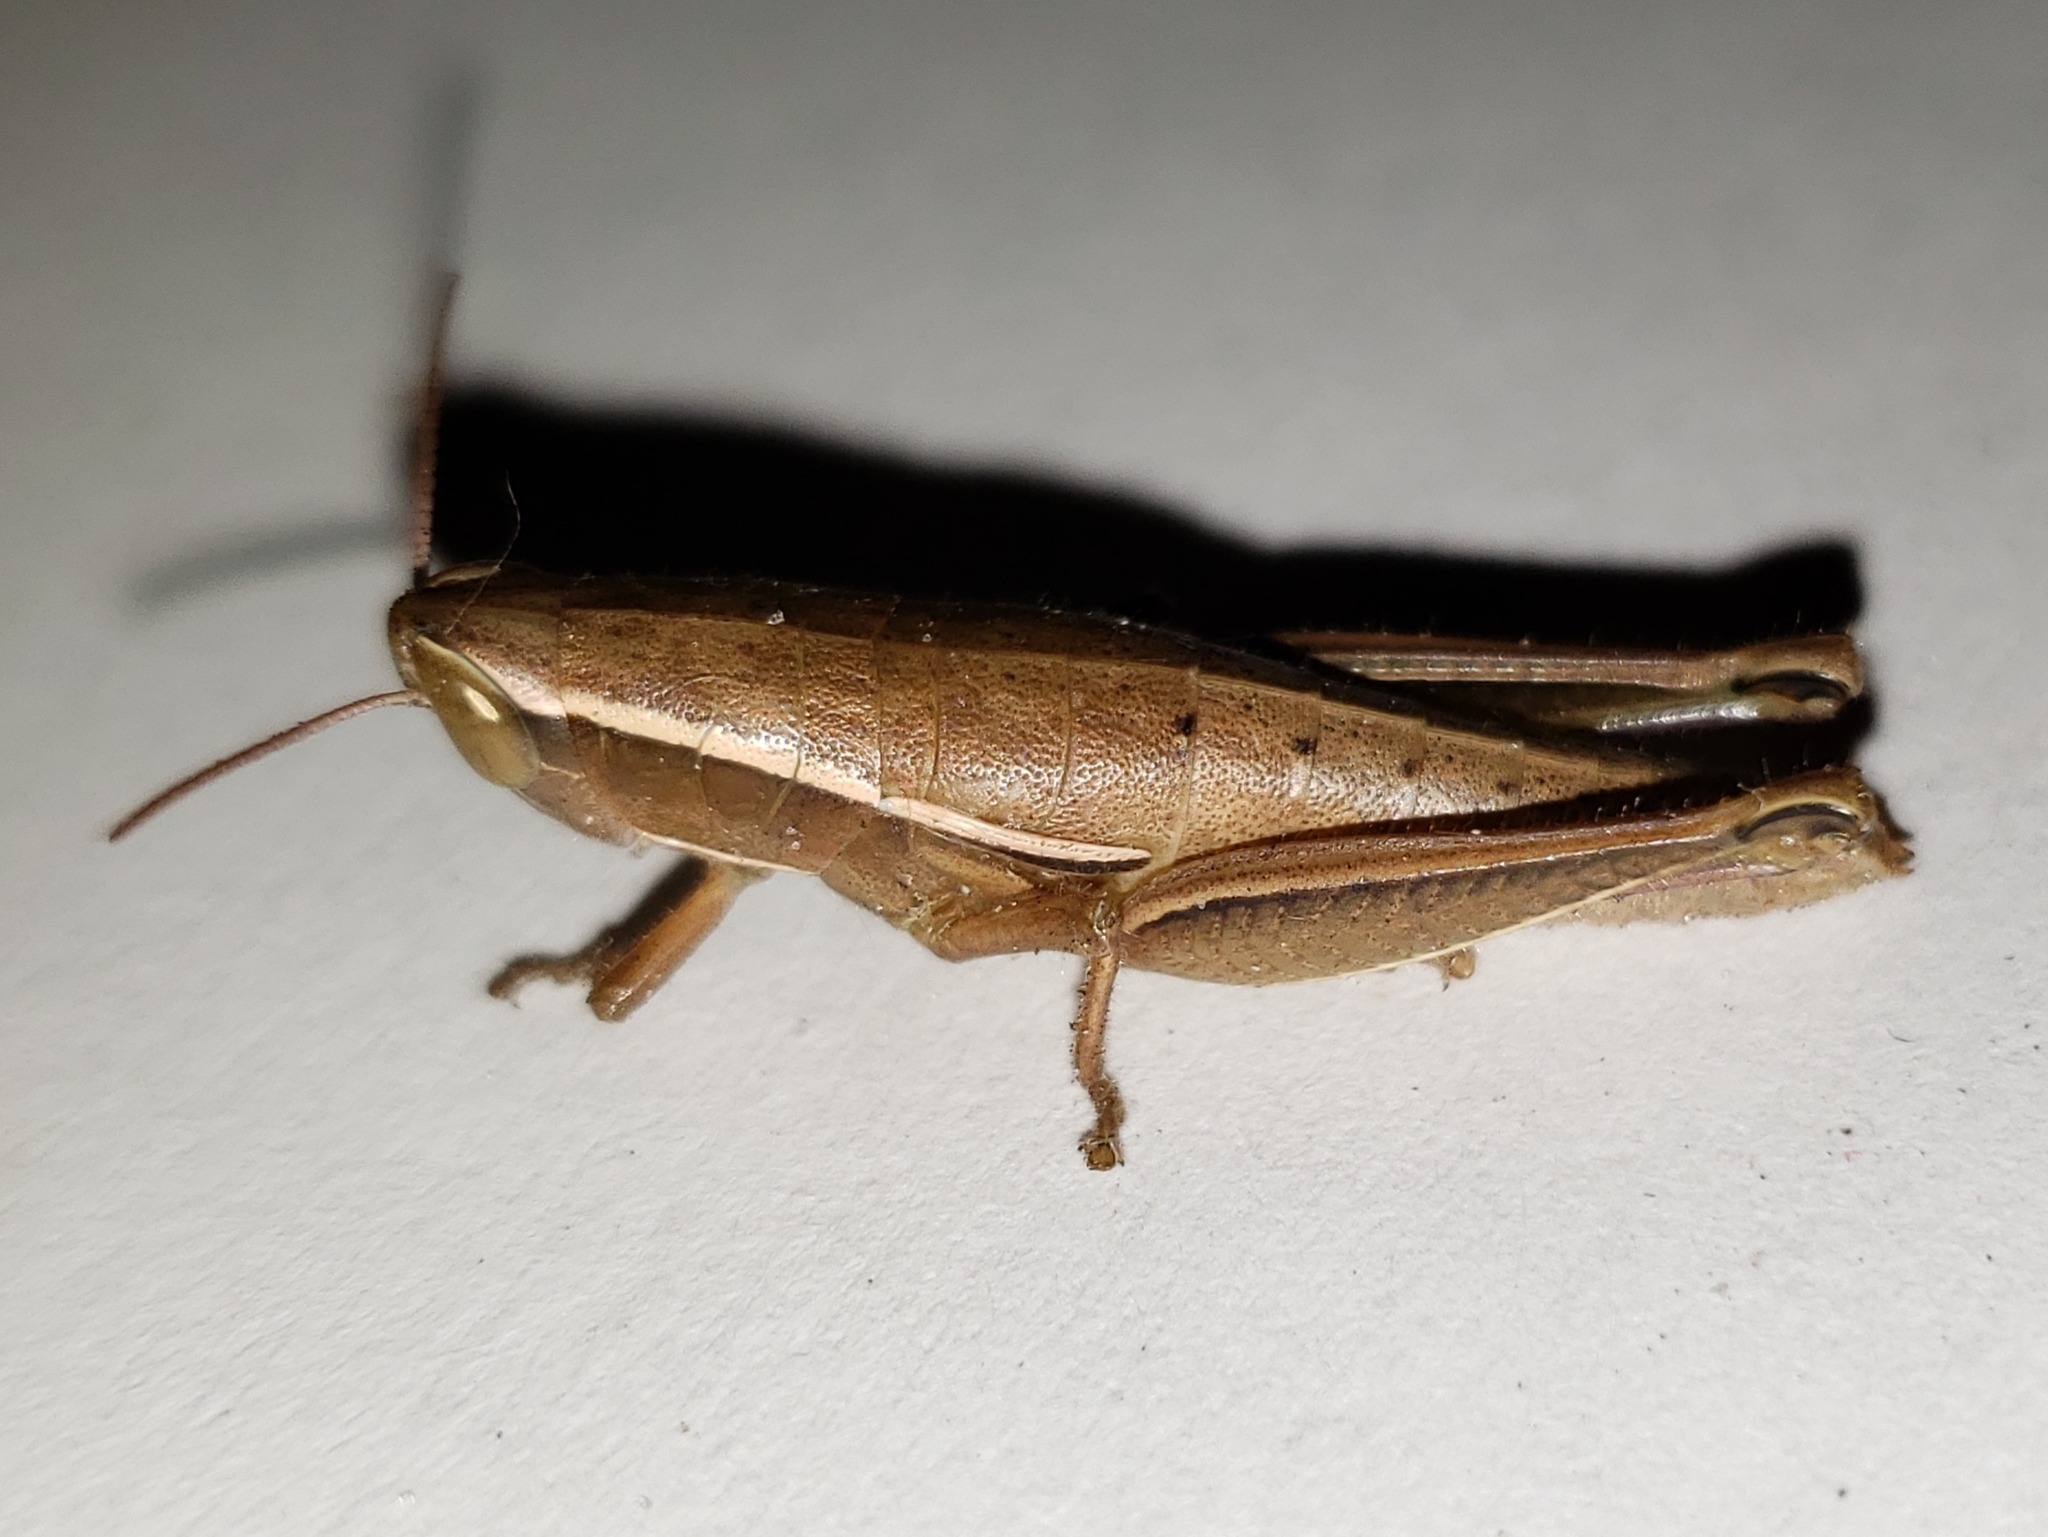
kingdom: Animalia
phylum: Arthropoda
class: Insecta
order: Orthoptera
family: Acrididae
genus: Aptenopedes
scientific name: Aptenopedes sphenarioides
